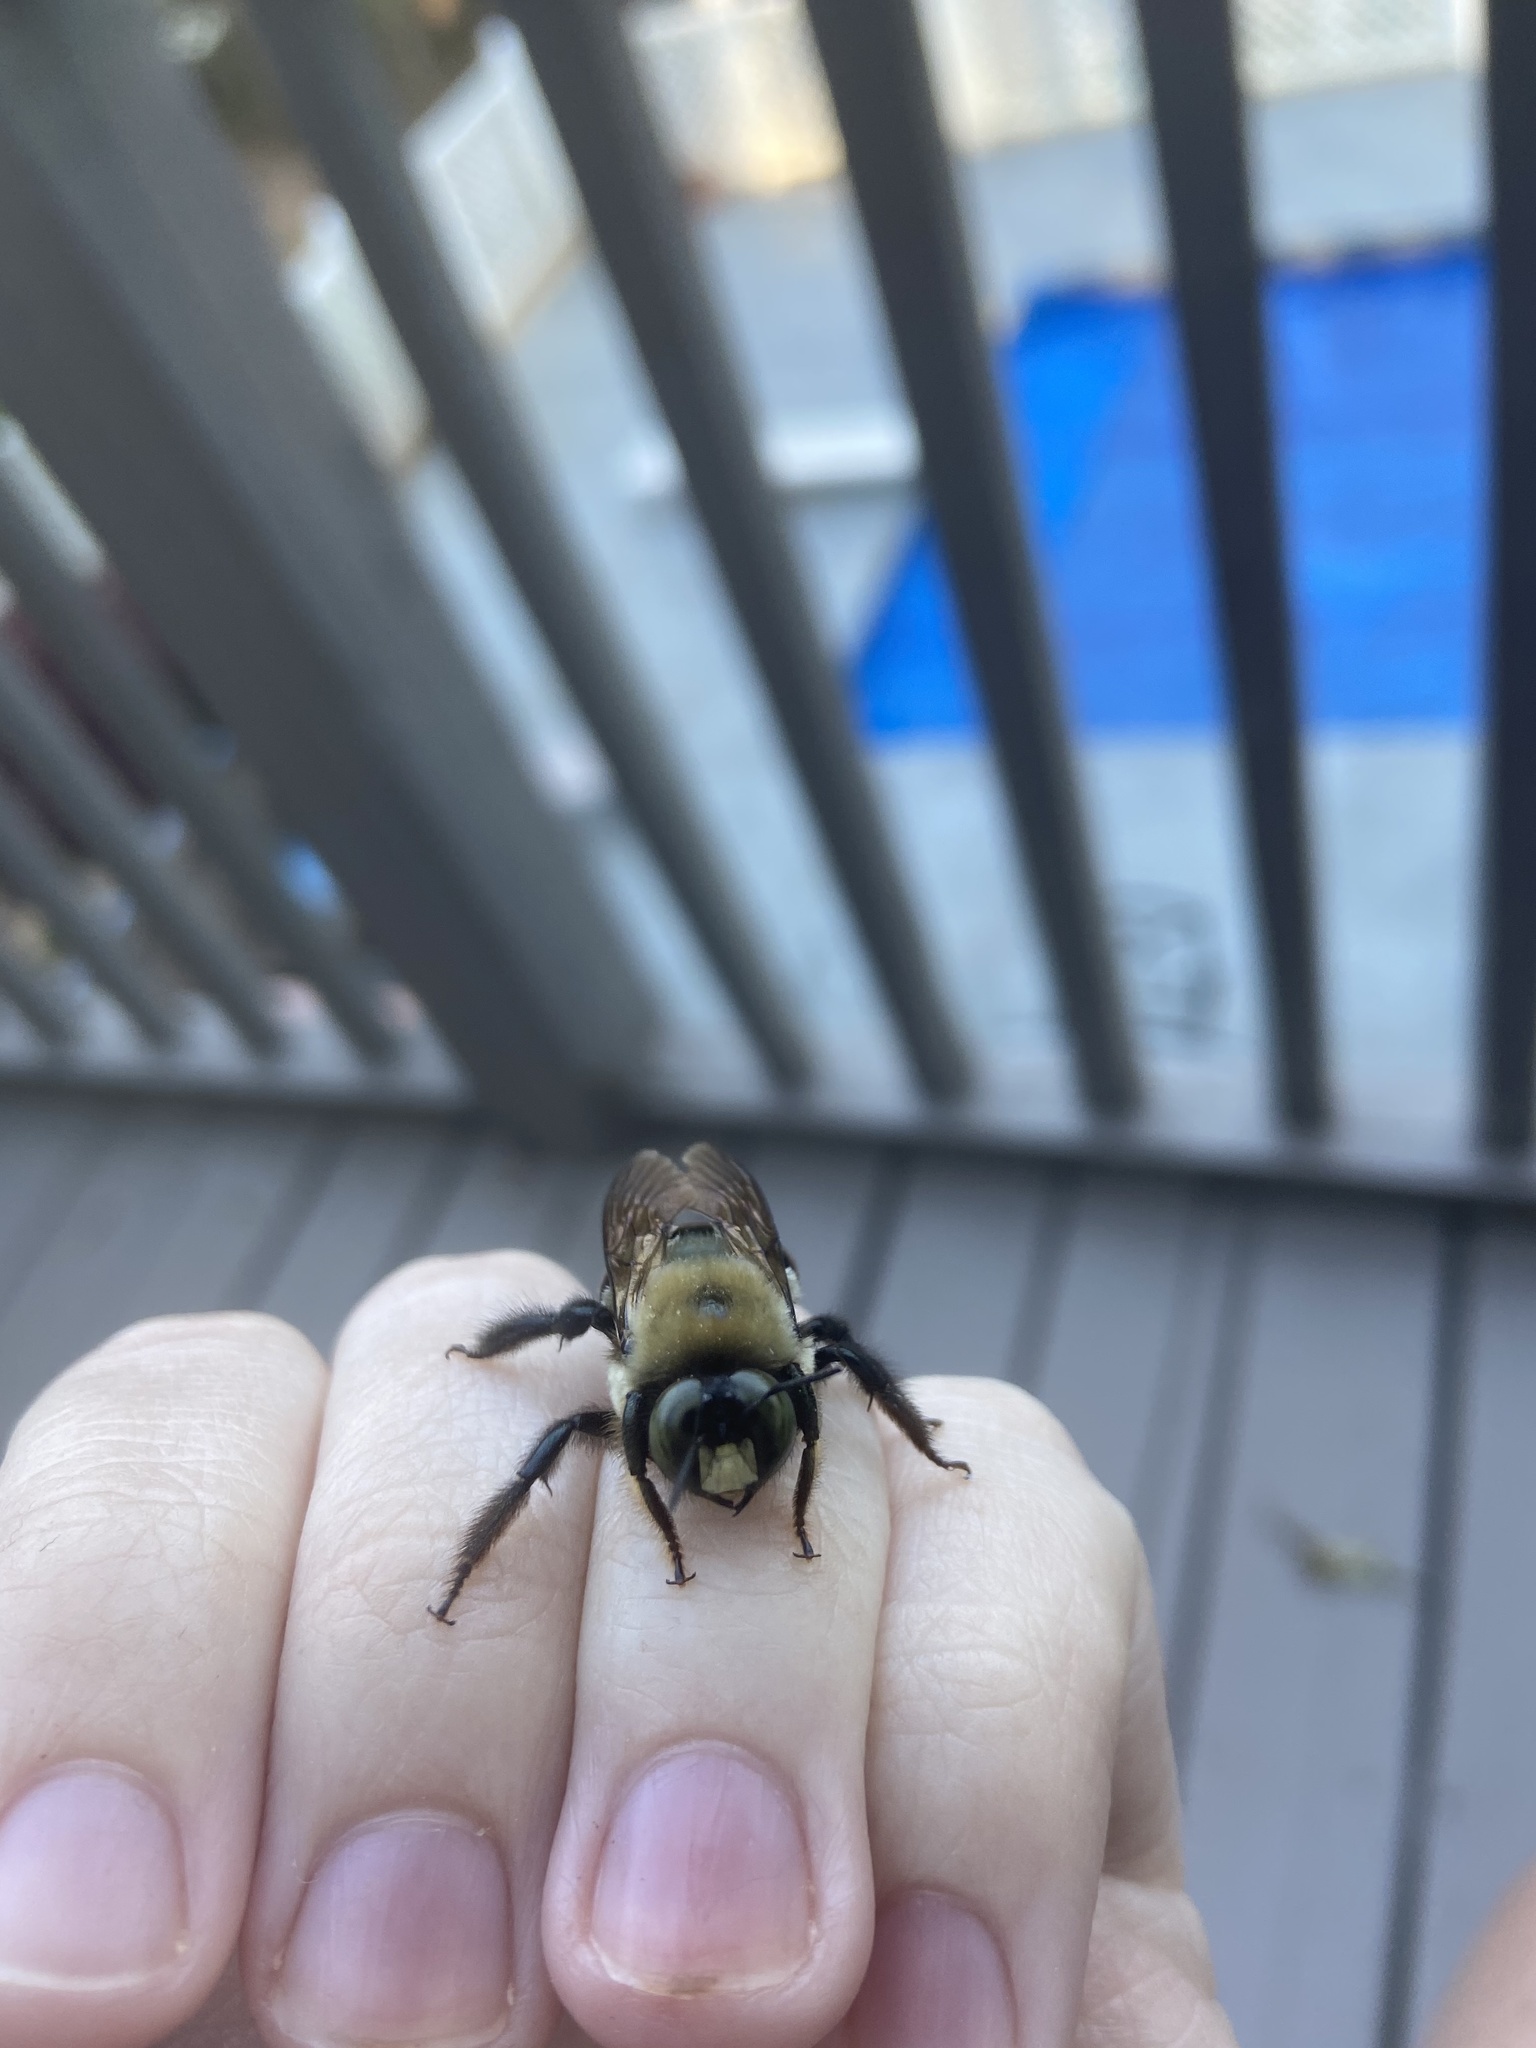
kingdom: Animalia
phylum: Arthropoda
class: Insecta
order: Hymenoptera
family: Apidae
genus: Xylocopa
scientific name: Xylocopa virginica
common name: Carpenter bee
